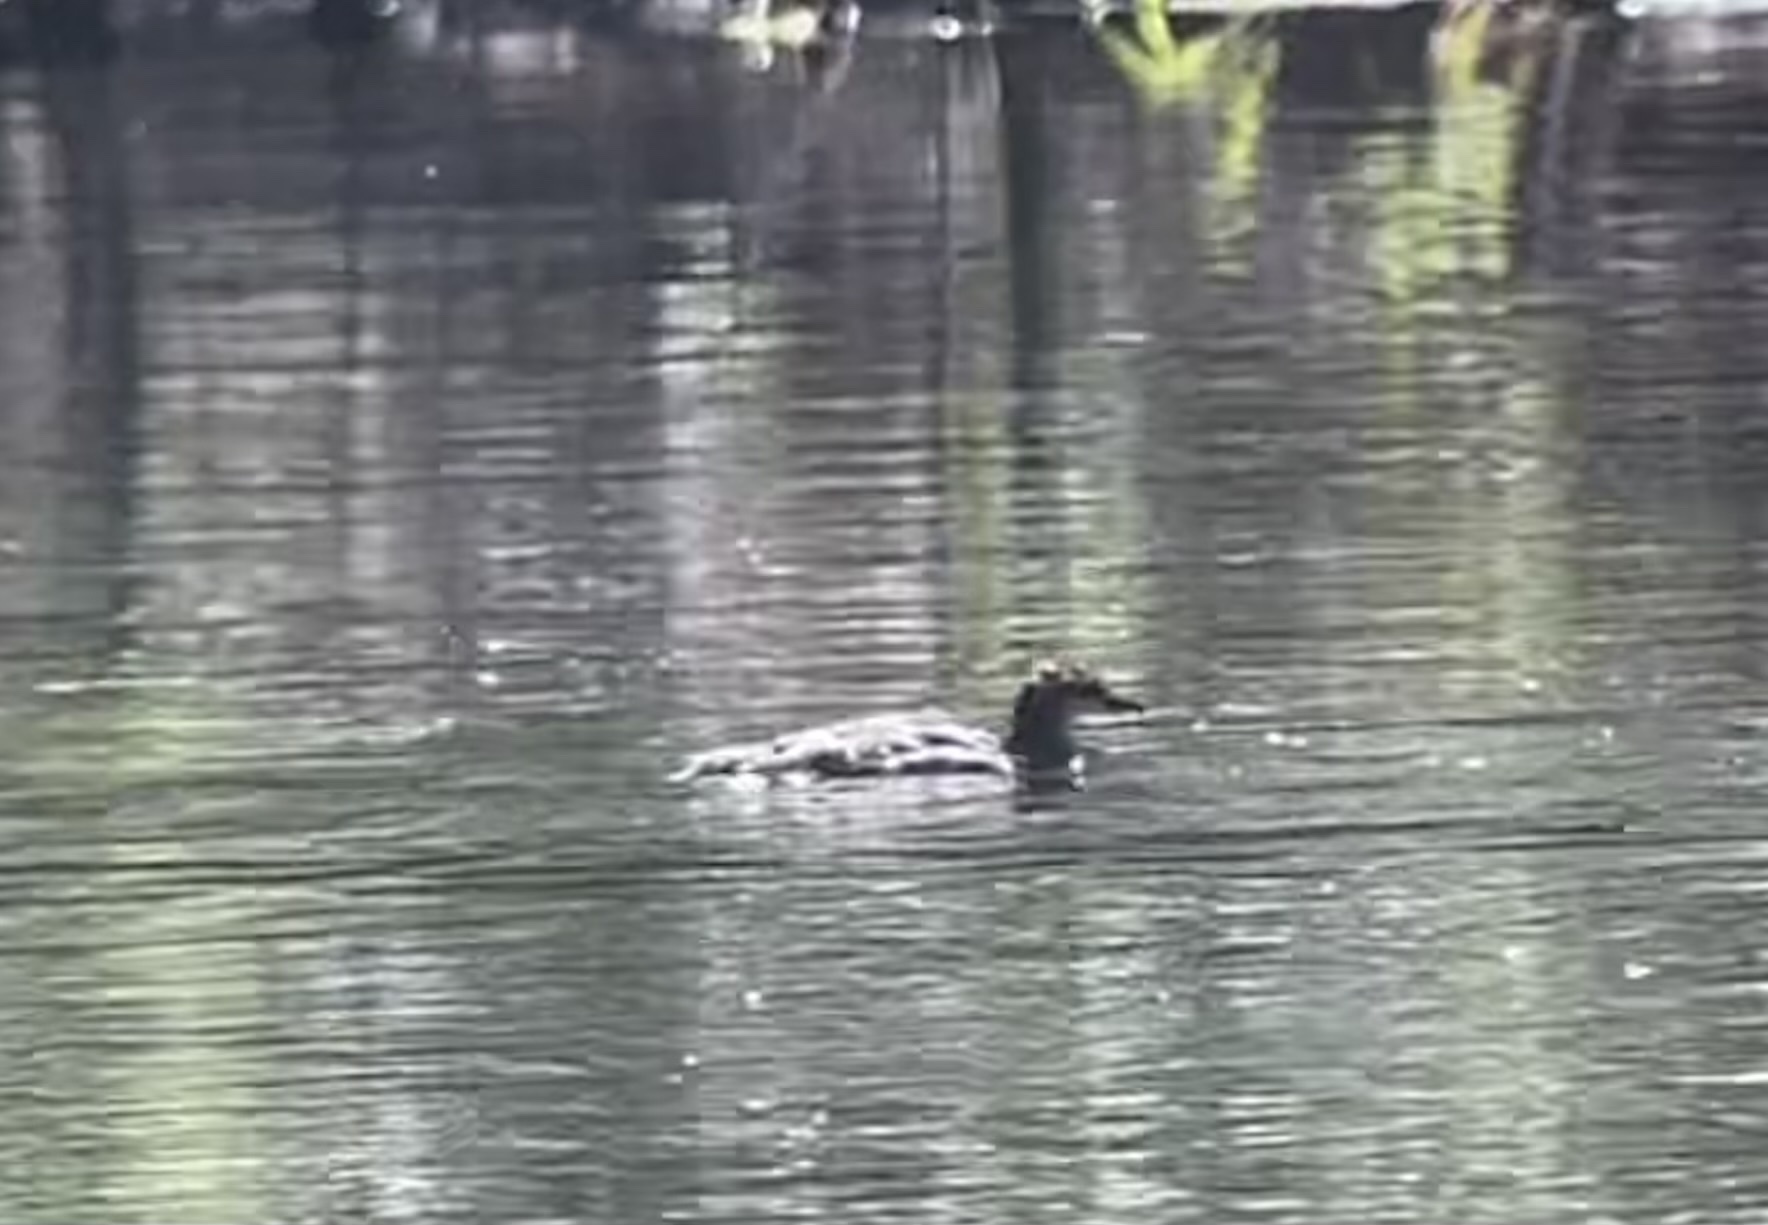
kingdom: Animalia
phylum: Chordata
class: Aves
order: Anseriformes
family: Anatidae
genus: Mergus
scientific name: Mergus merganser
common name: Common merganser
